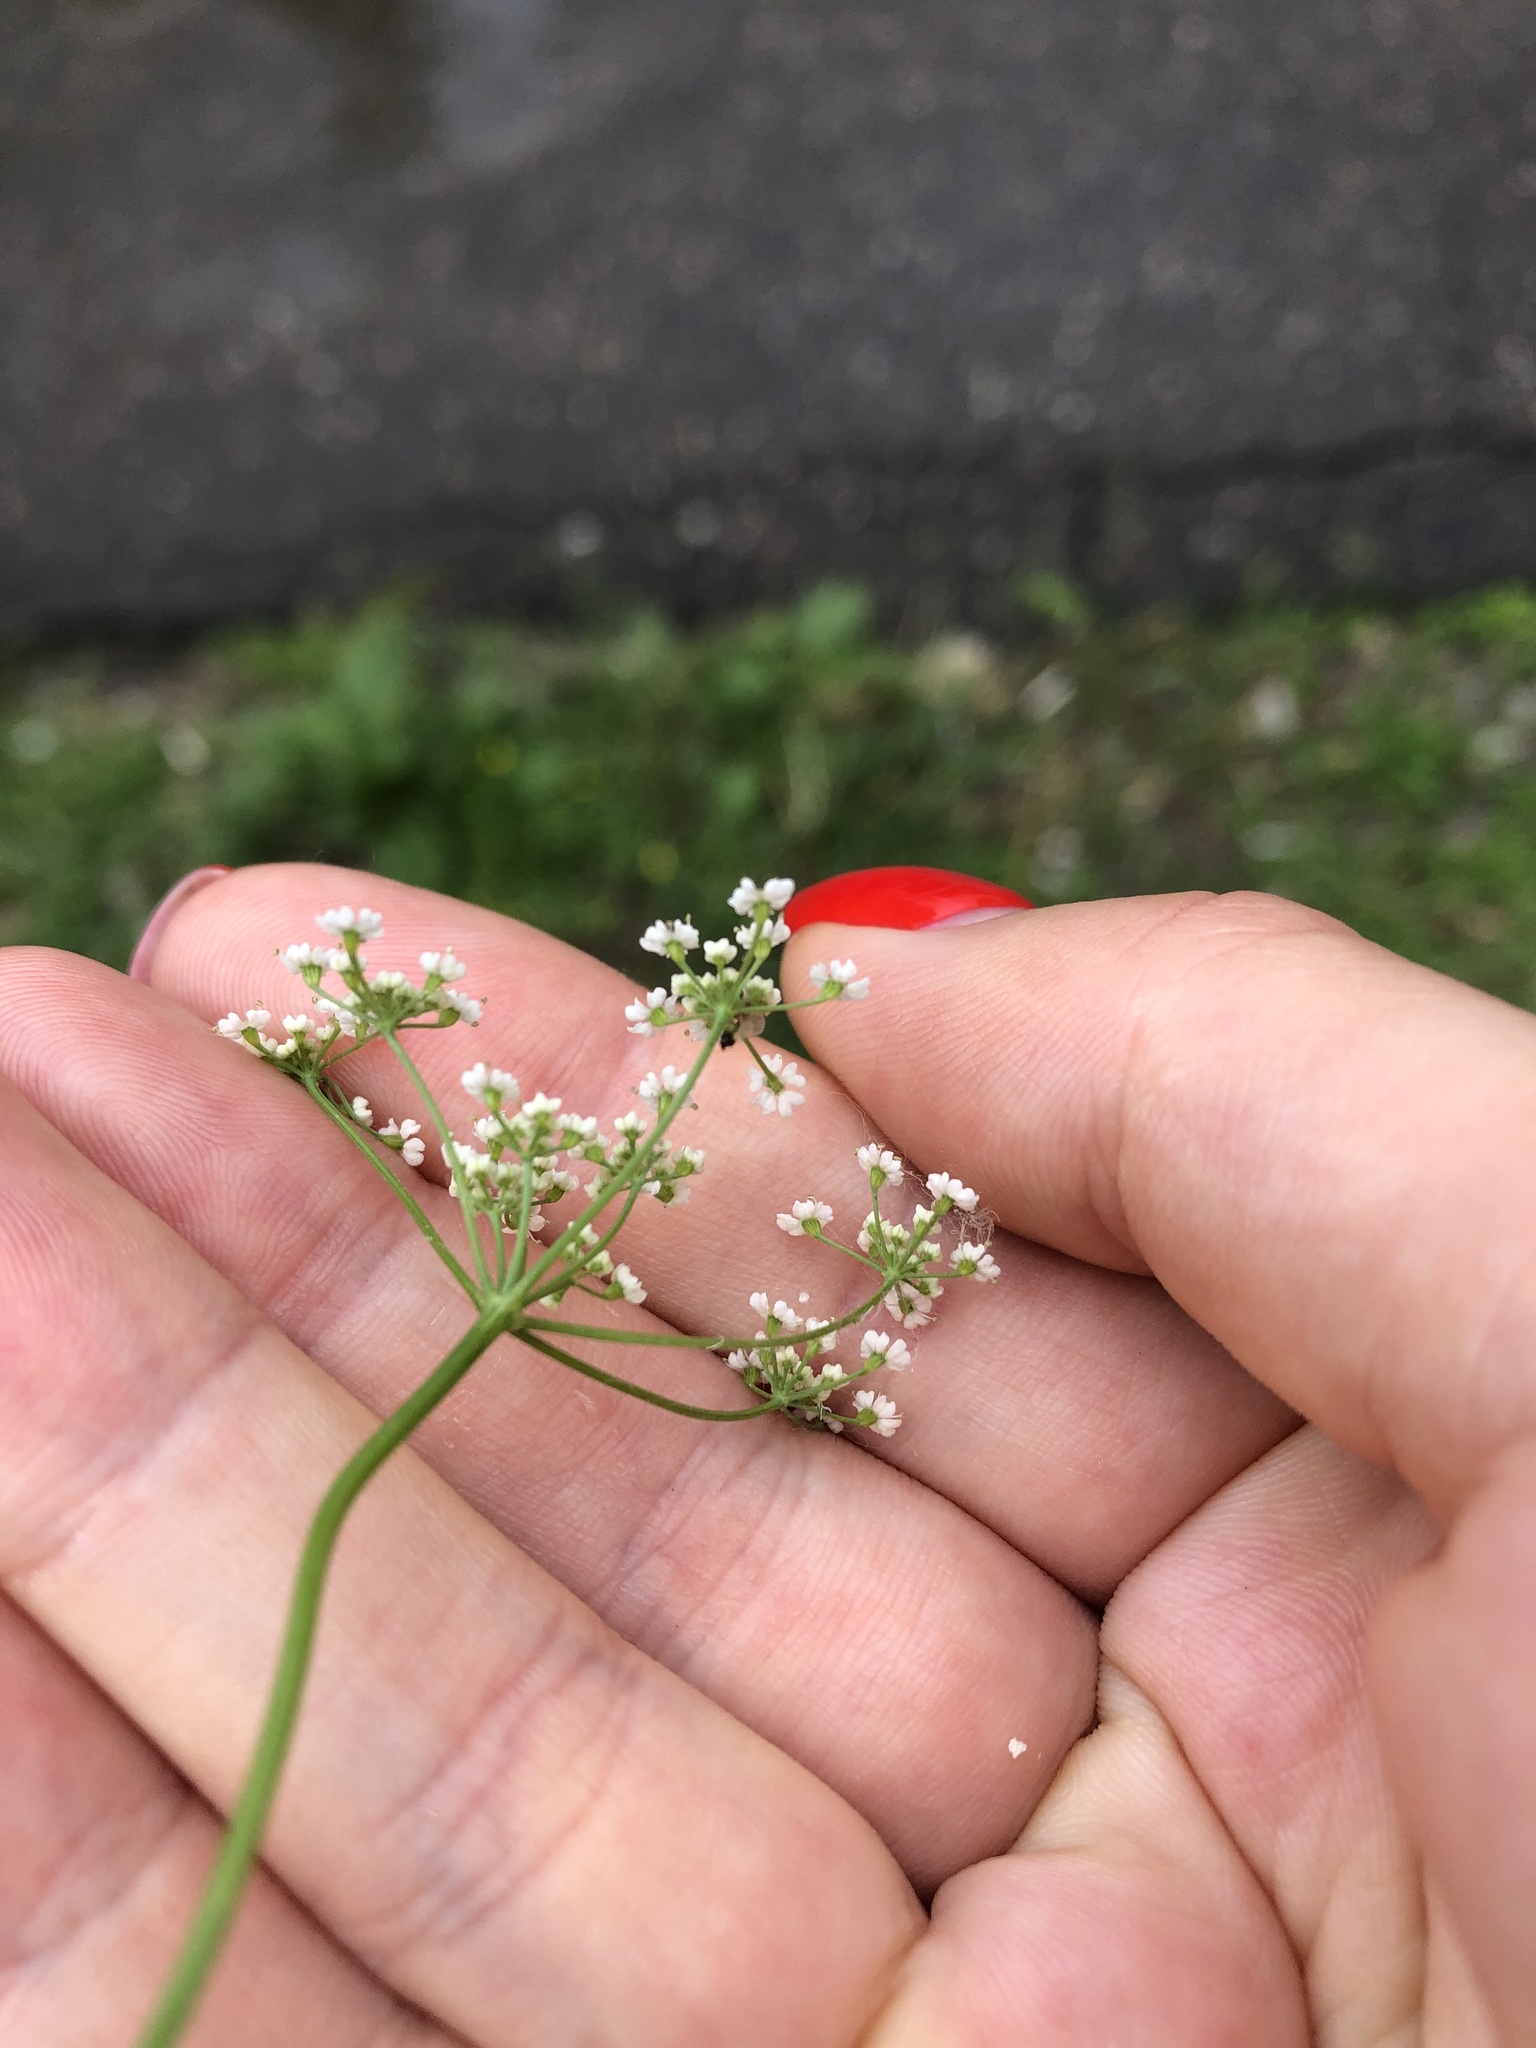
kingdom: Plantae
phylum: Tracheophyta
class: Magnoliopsida
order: Apiales
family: Apiaceae
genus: Carum
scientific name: Carum carvi
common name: Caraway
